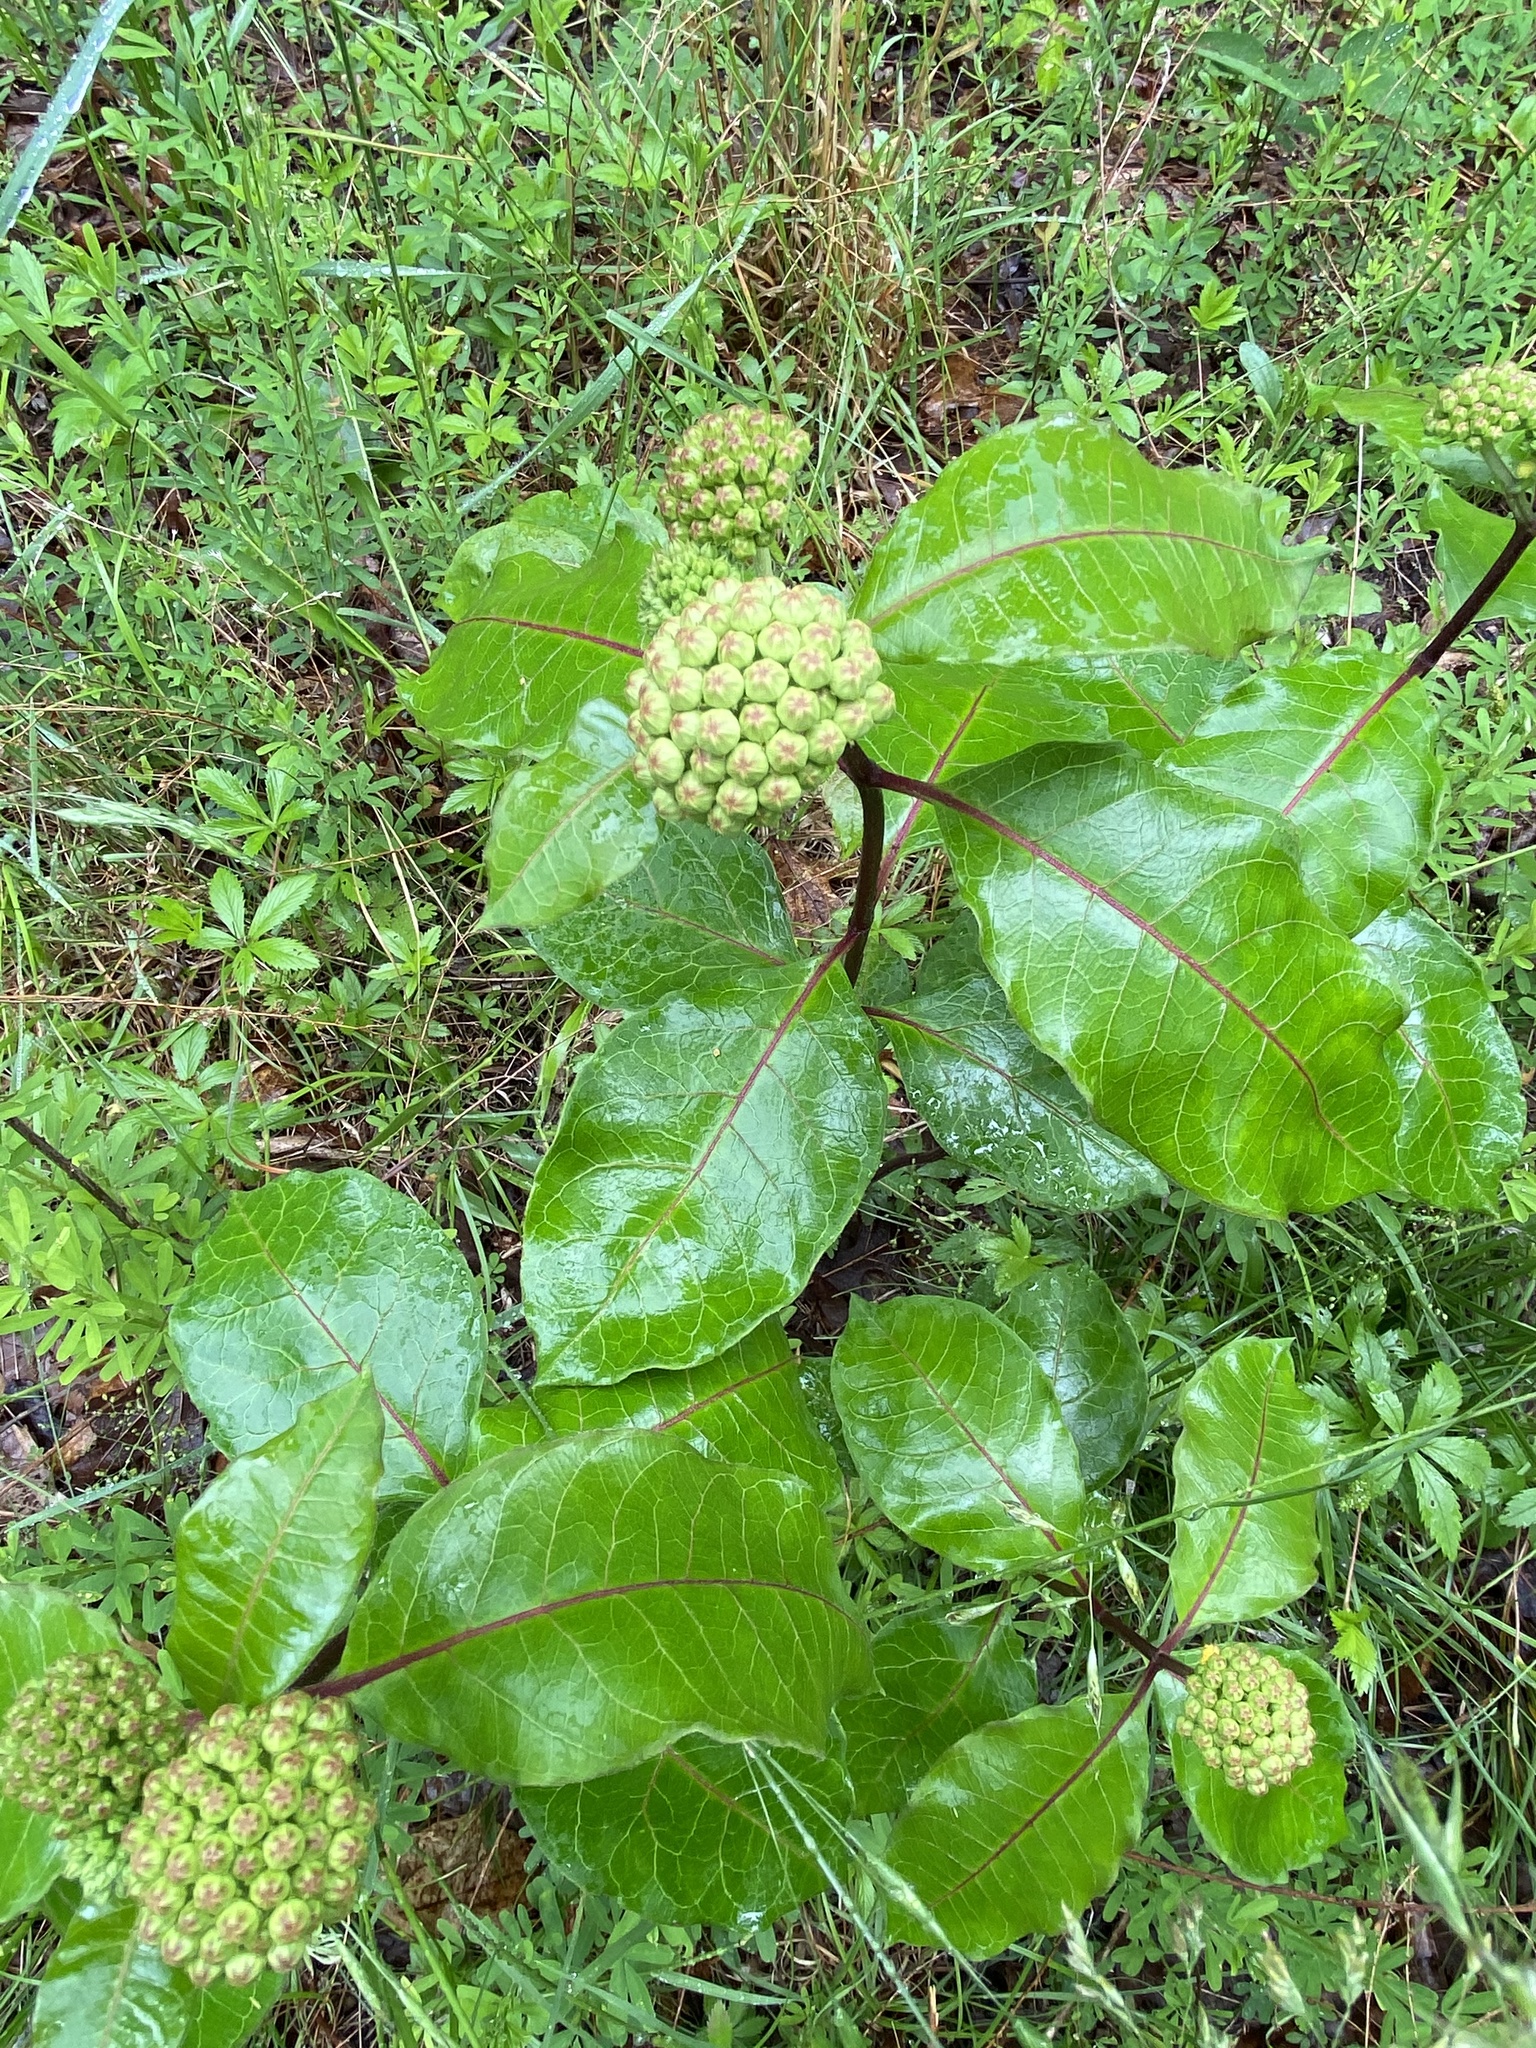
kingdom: Plantae
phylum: Tracheophyta
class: Magnoliopsida
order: Gentianales
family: Apocynaceae
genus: Asclepias
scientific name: Asclepias variegata
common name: Variegated milkweed
